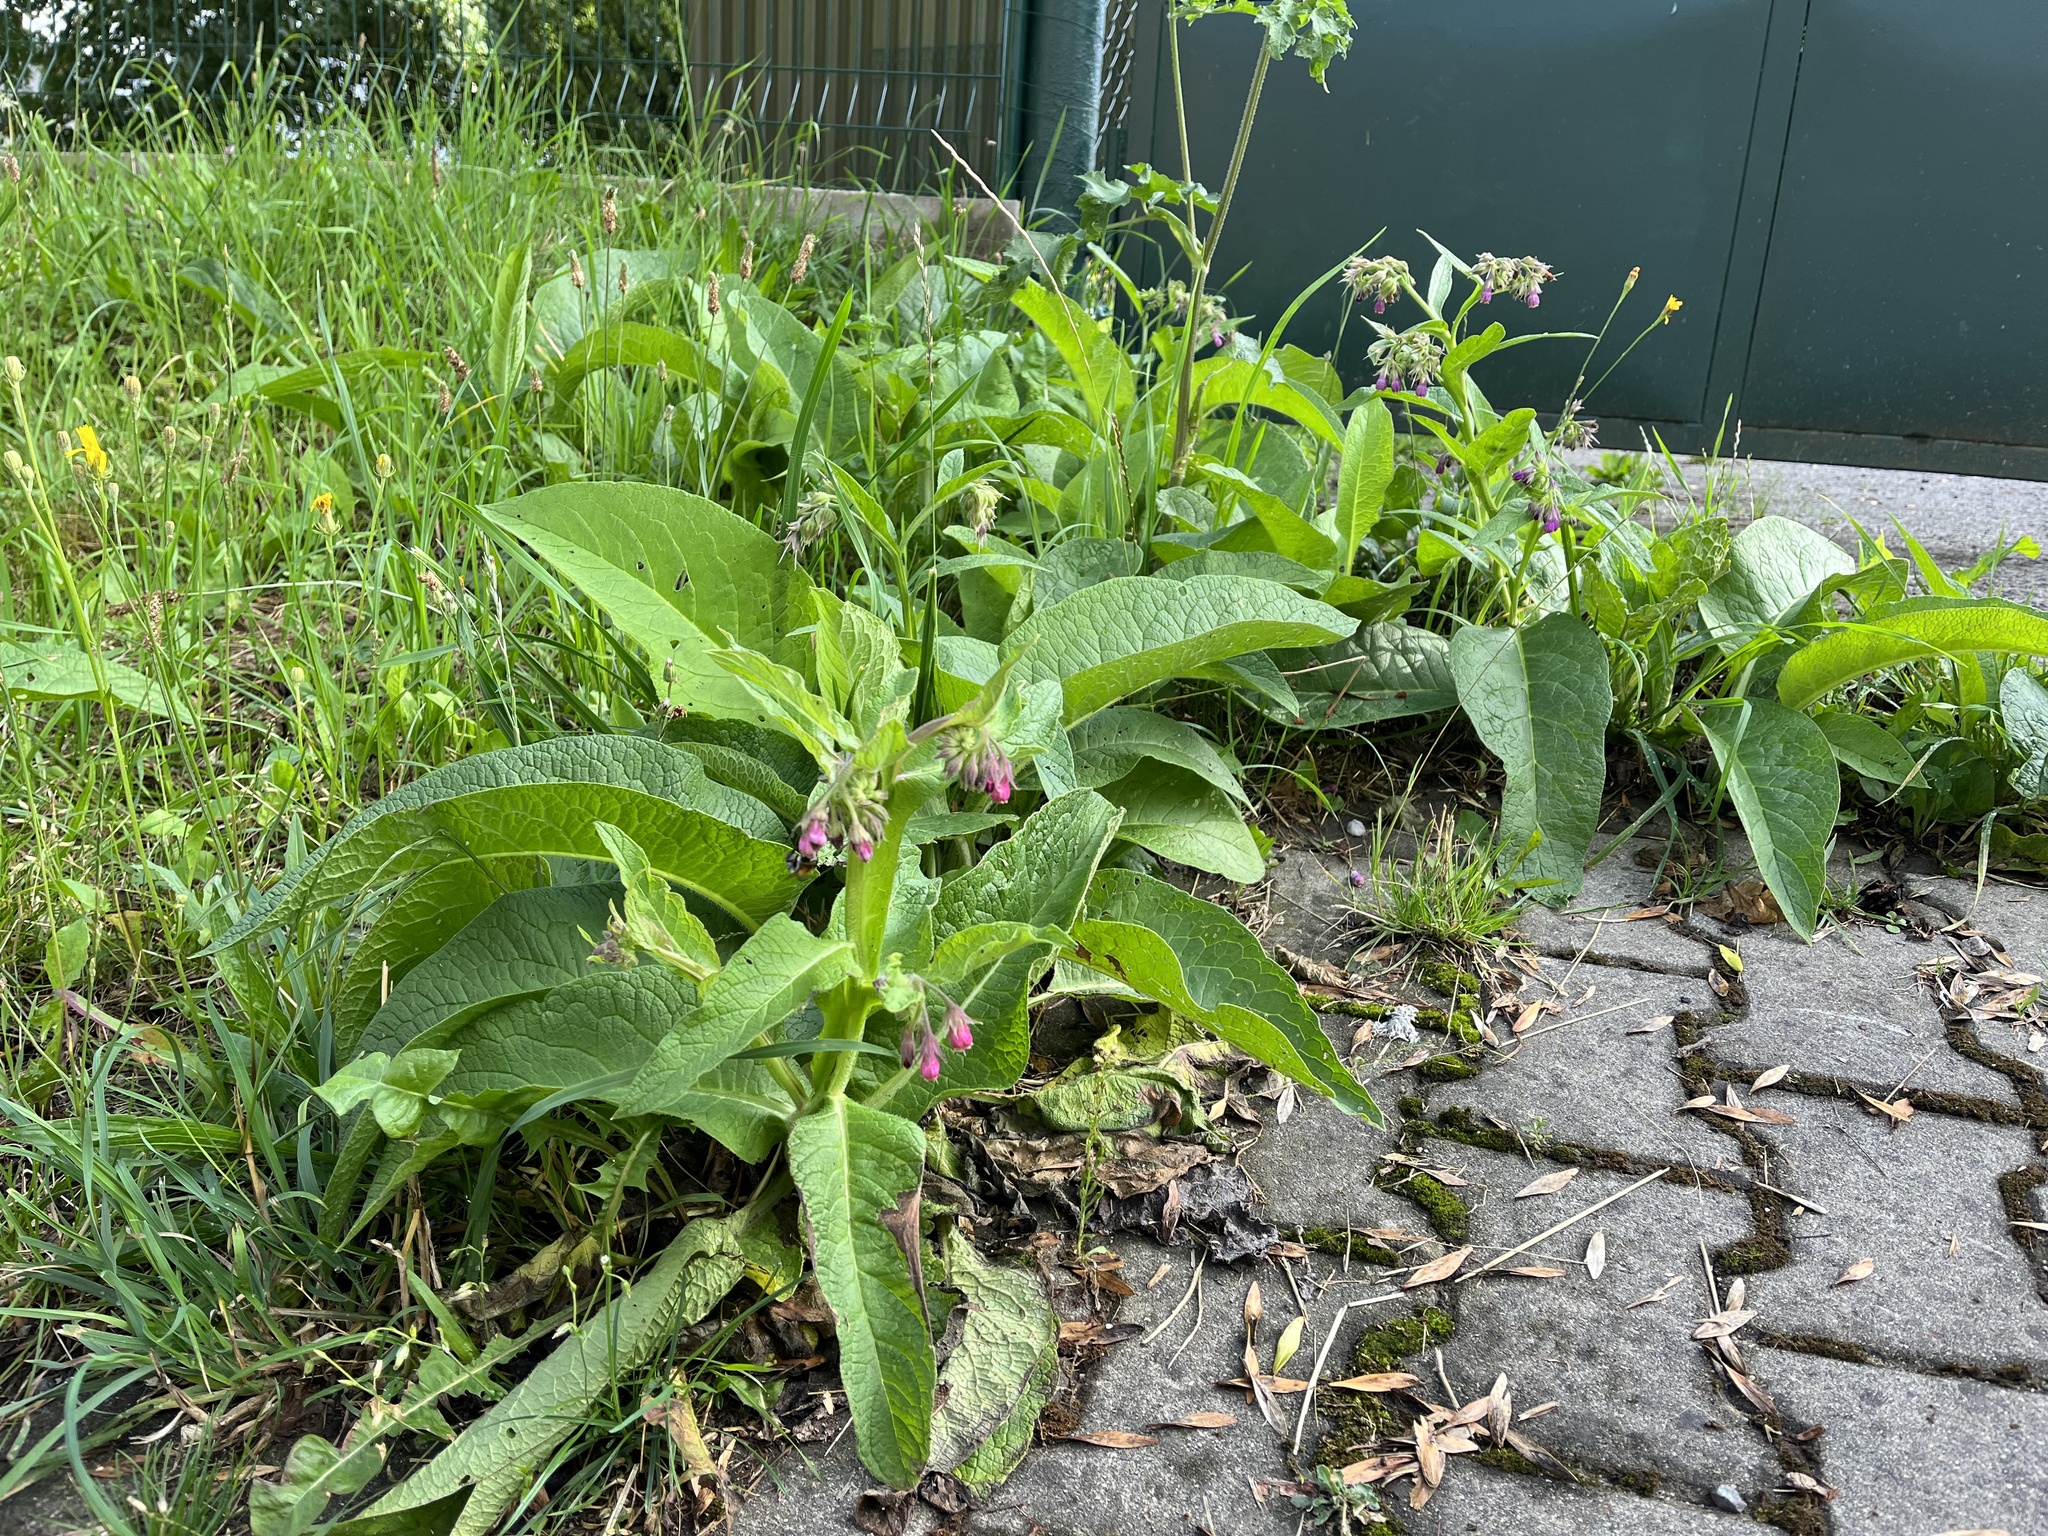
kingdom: Plantae
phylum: Tracheophyta
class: Magnoliopsida
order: Boraginales
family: Boraginaceae
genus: Symphytum
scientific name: Symphytum officinale
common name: Common comfrey
